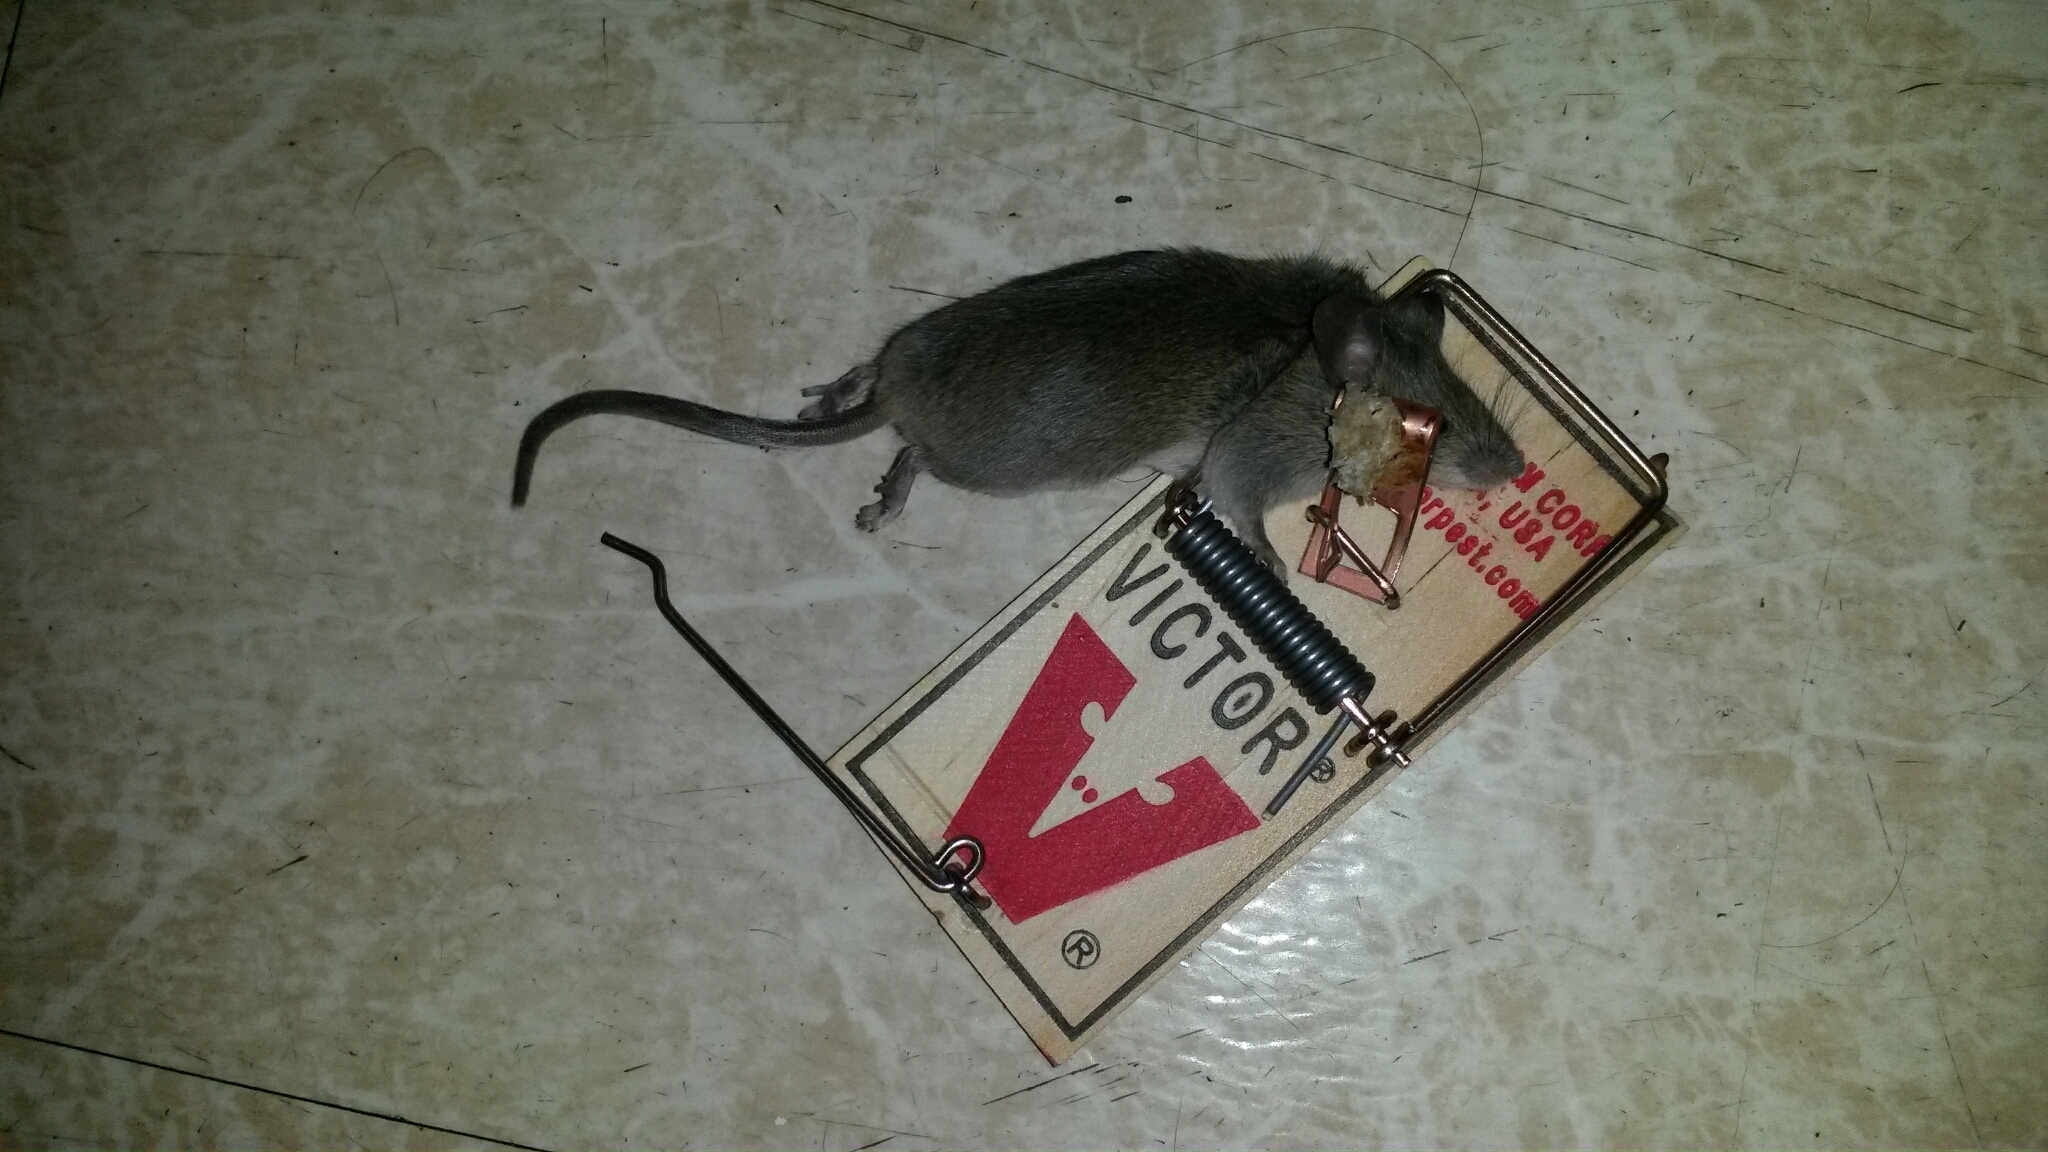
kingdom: Animalia
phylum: Chordata
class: Mammalia
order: Rodentia
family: Muridae
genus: Mus
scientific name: Mus musculus
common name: House mouse
